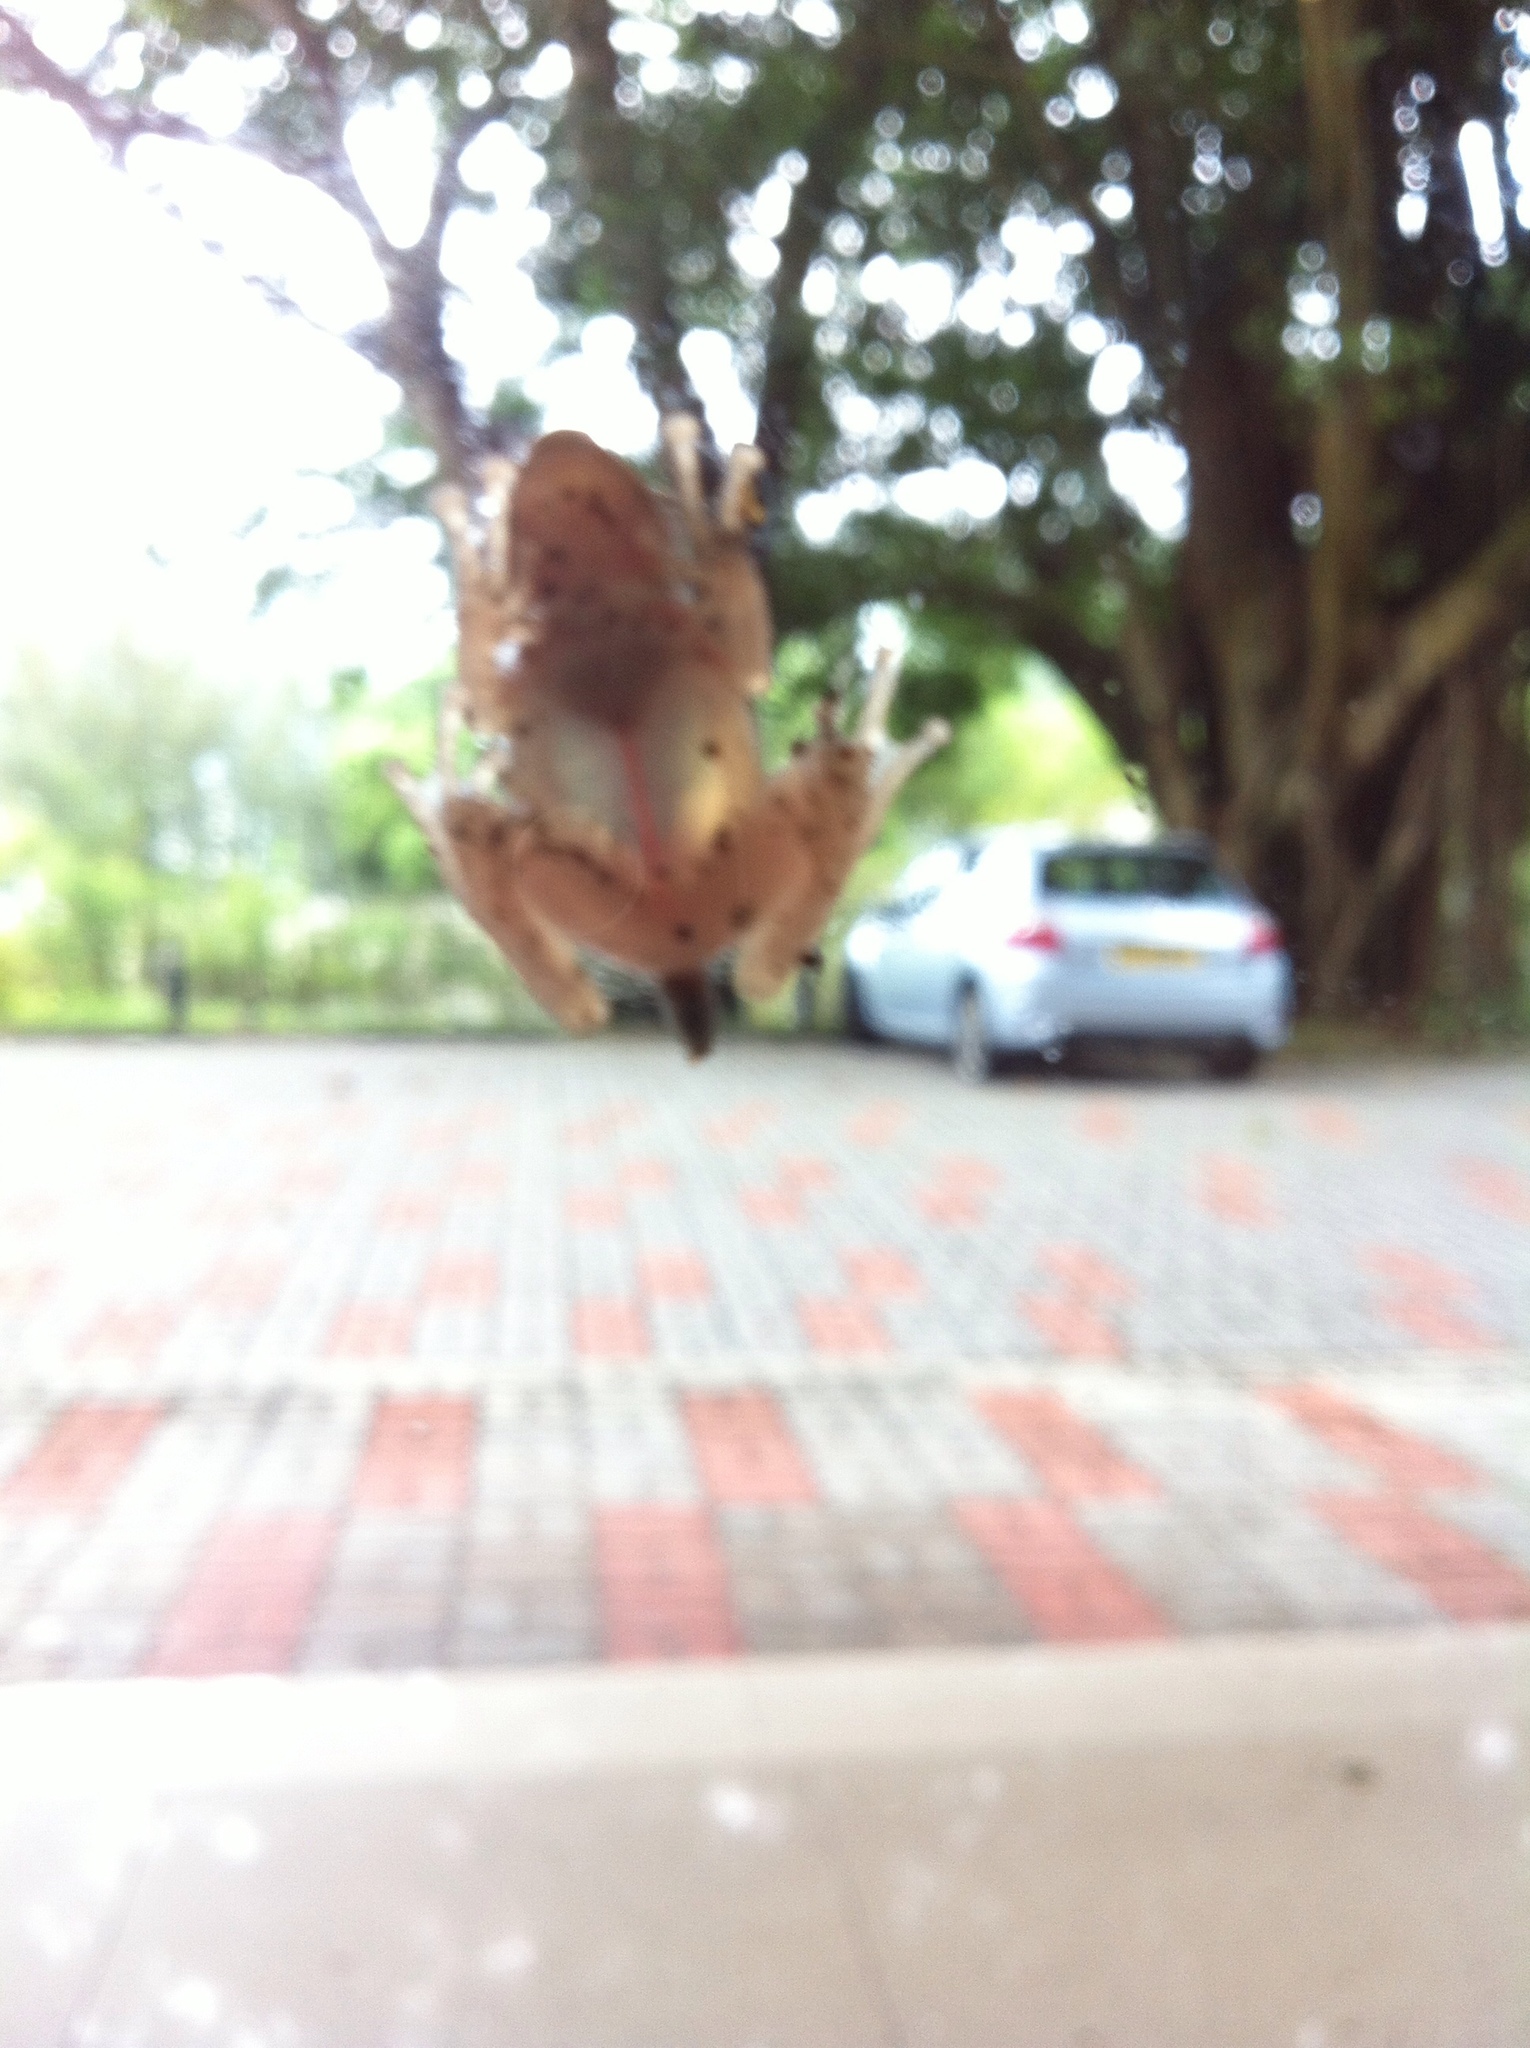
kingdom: Animalia
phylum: Chordata
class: Amphibia
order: Anura
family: Rhacophoridae
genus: Polypedates
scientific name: Polypedates megacephalus
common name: Hong kong whipping frog
